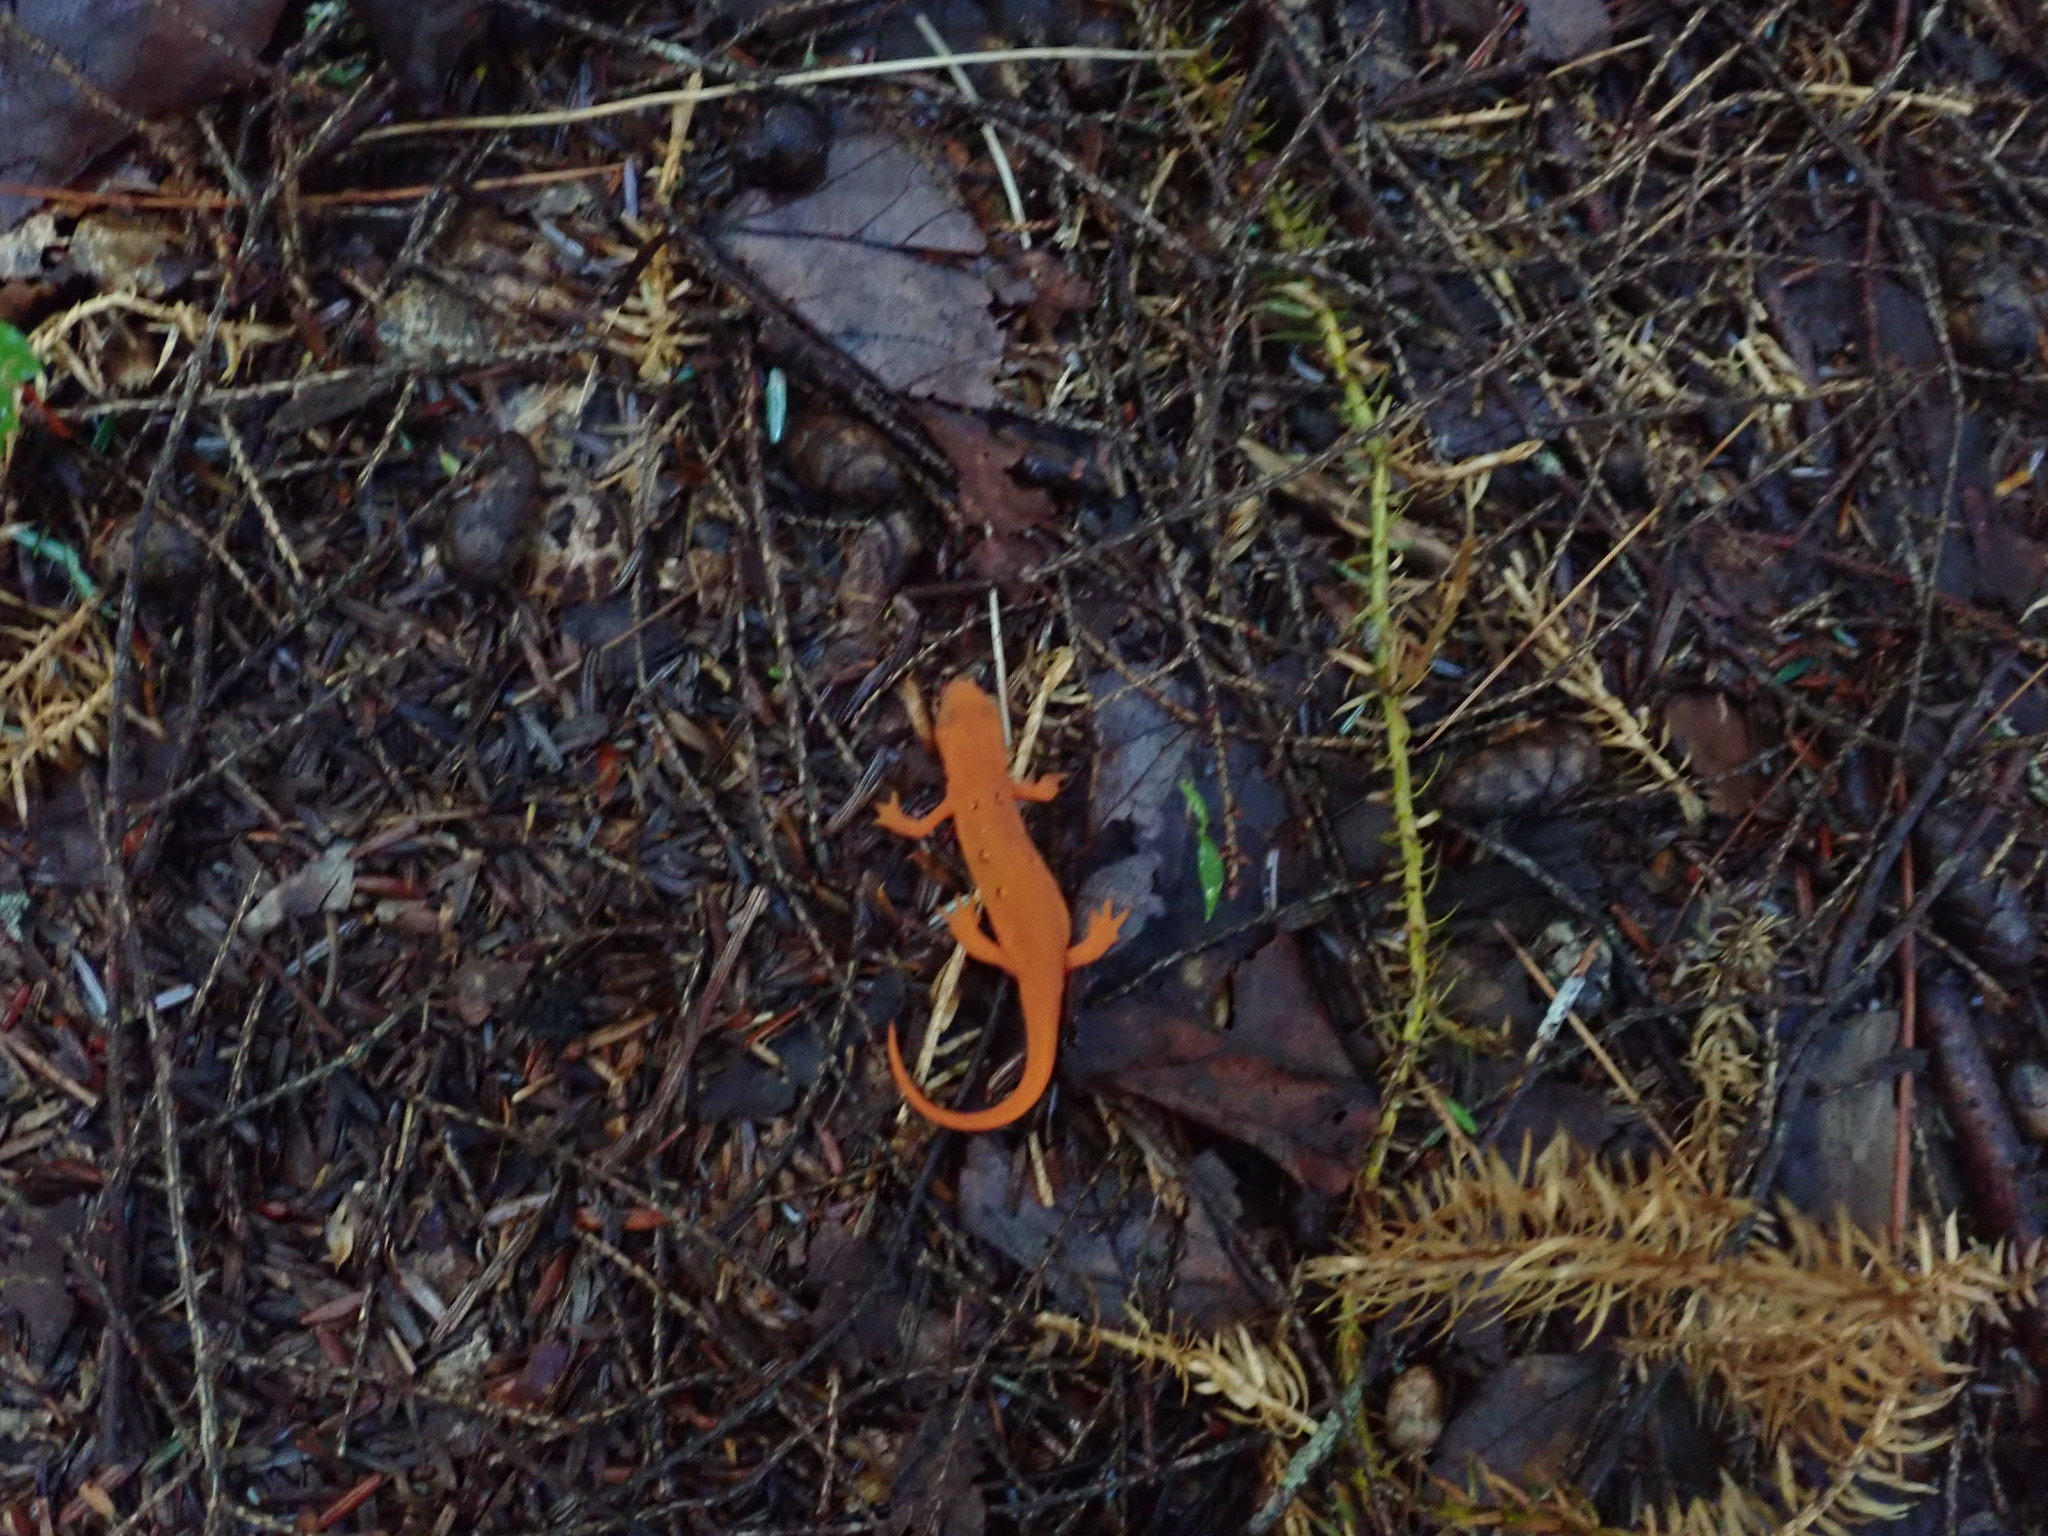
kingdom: Animalia
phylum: Chordata
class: Amphibia
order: Caudata
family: Salamandridae
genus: Notophthalmus
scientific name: Notophthalmus viridescens
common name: Eastern newt
